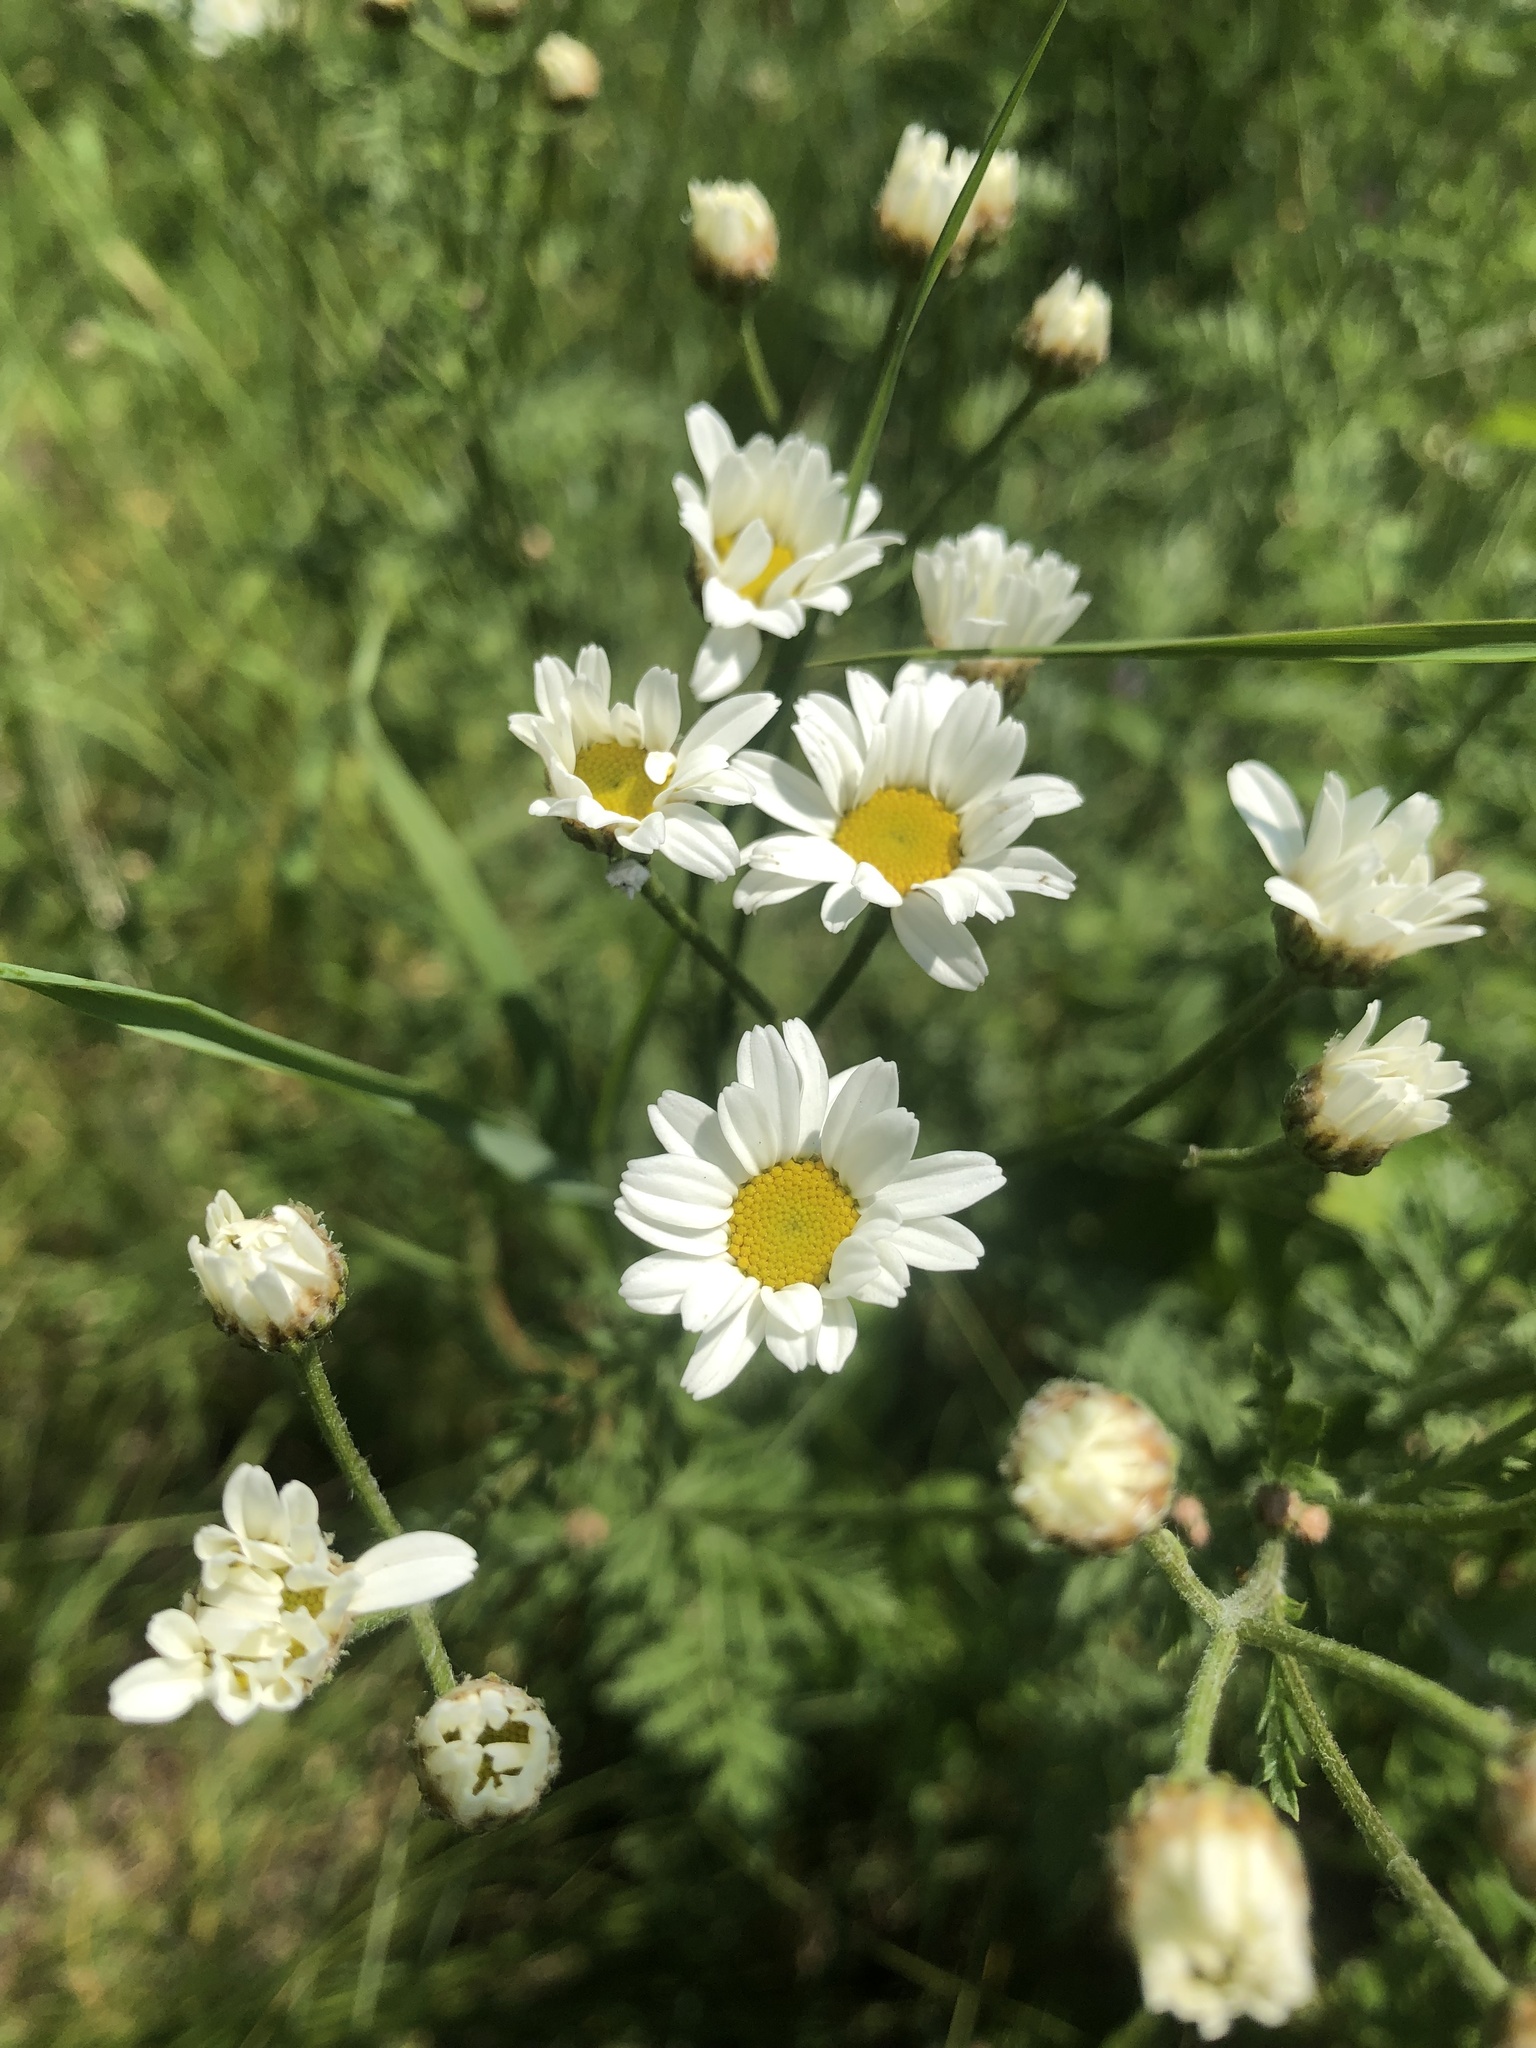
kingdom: Plantae
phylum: Tracheophyta
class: Magnoliopsida
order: Asterales
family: Asteraceae
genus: Tanacetum
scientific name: Tanacetum corymbosum
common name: Scentless feverfew
